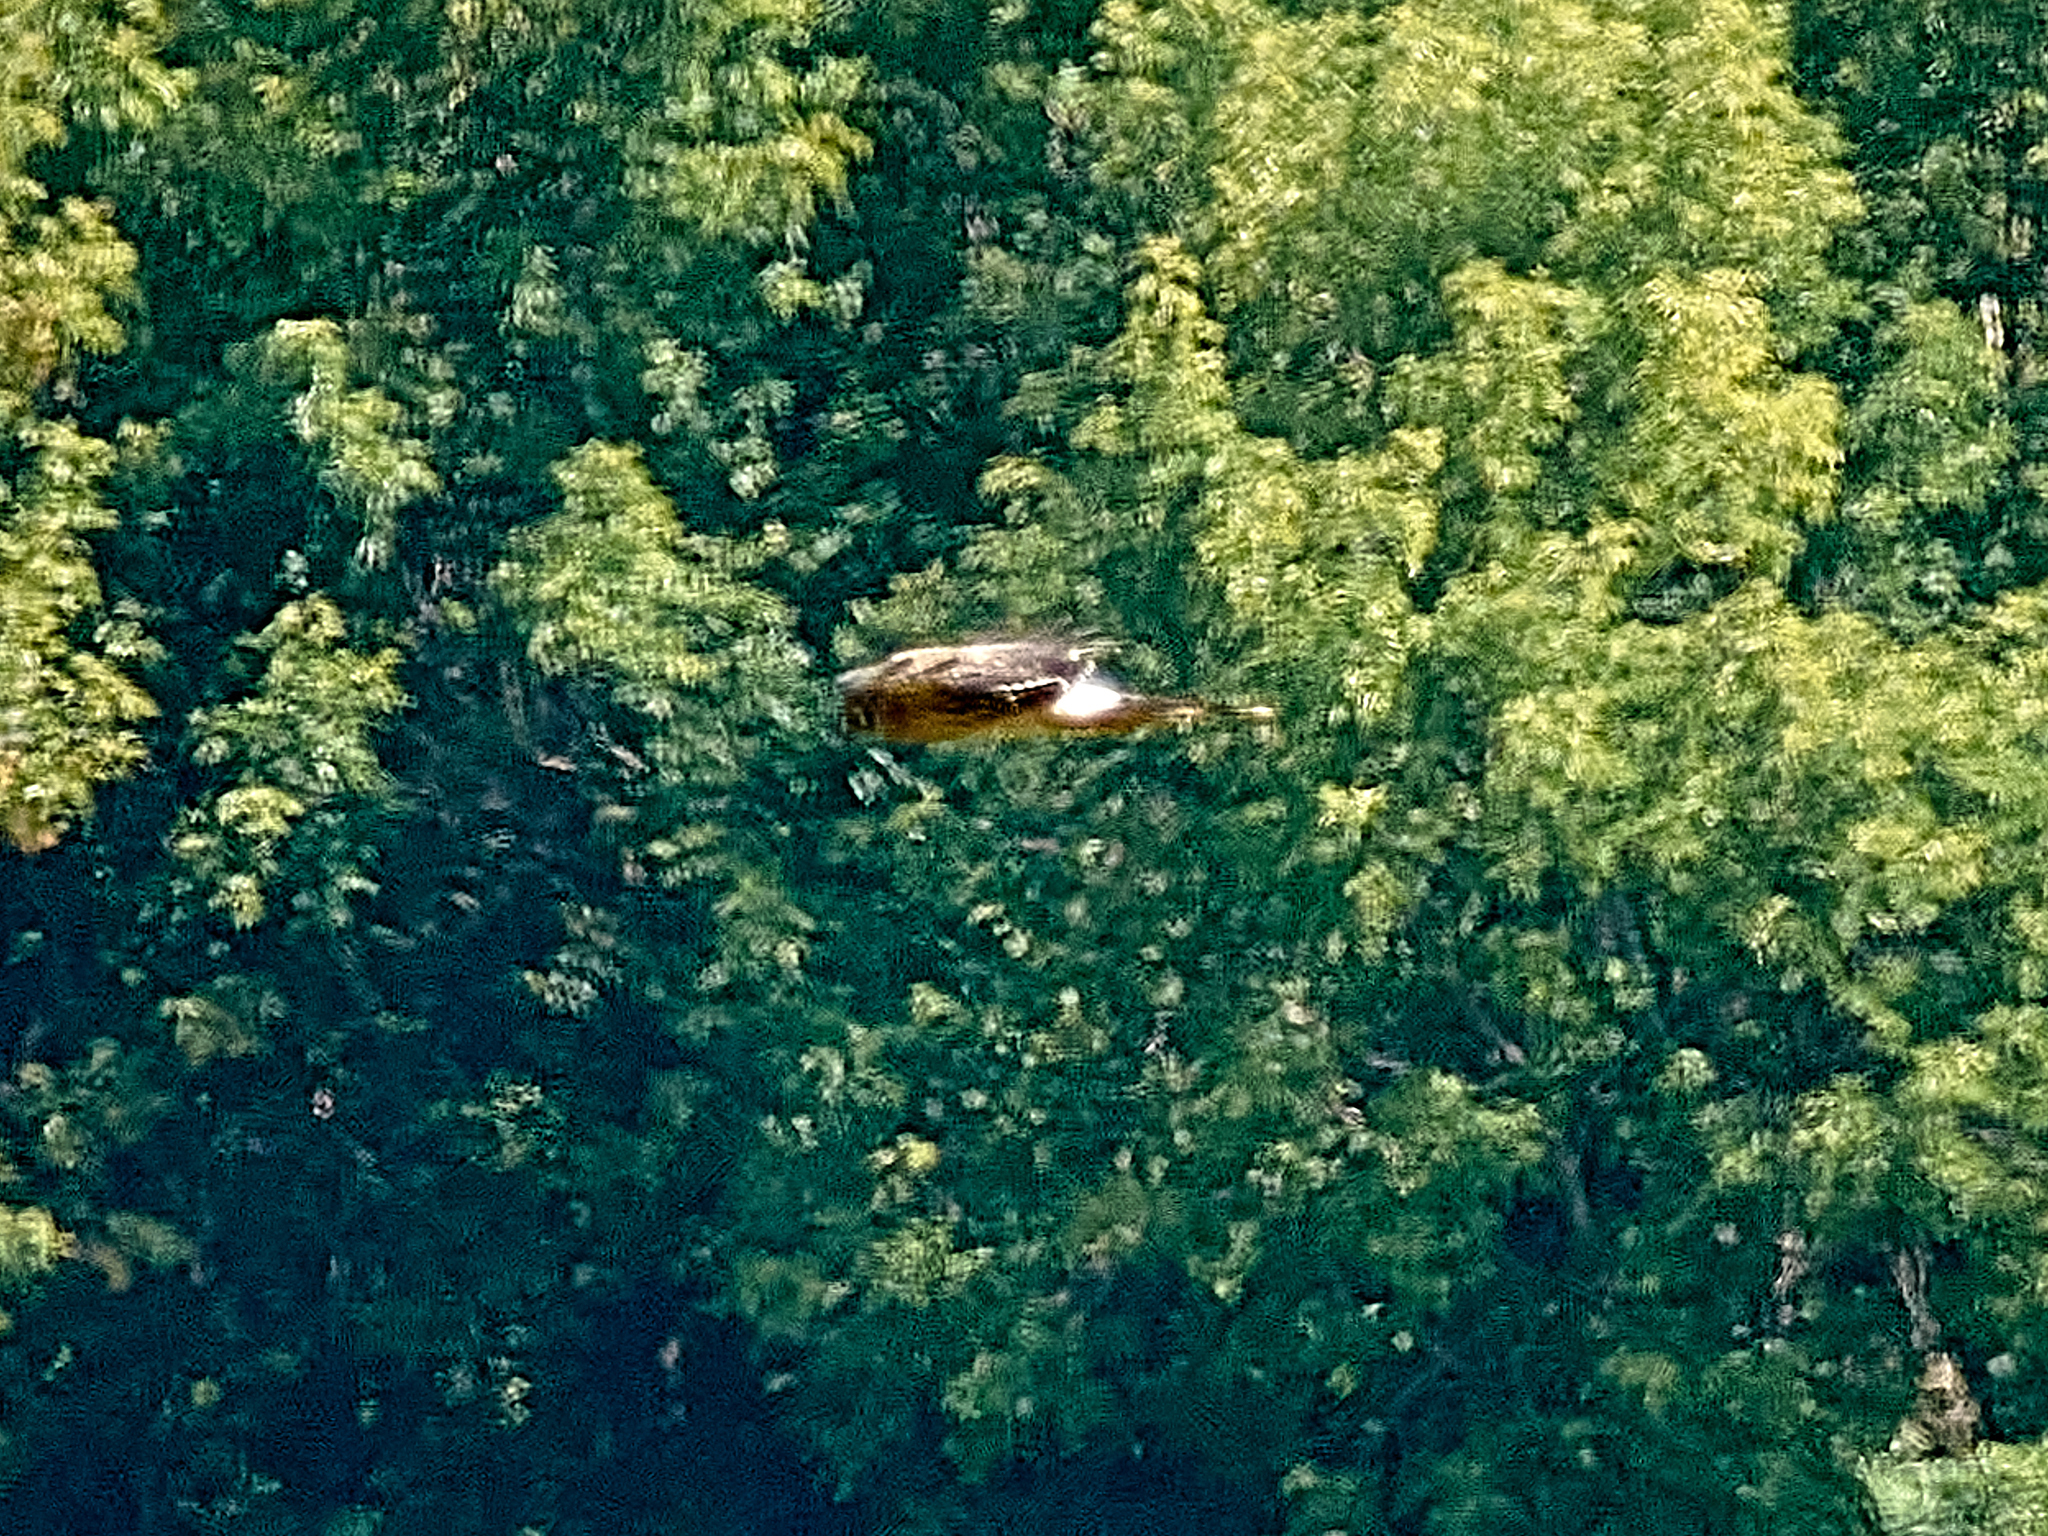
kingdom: Animalia
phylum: Chordata
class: Aves
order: Accipitriformes
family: Accipitridae
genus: Circus
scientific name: Circus cyaneus
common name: Hen harrier
